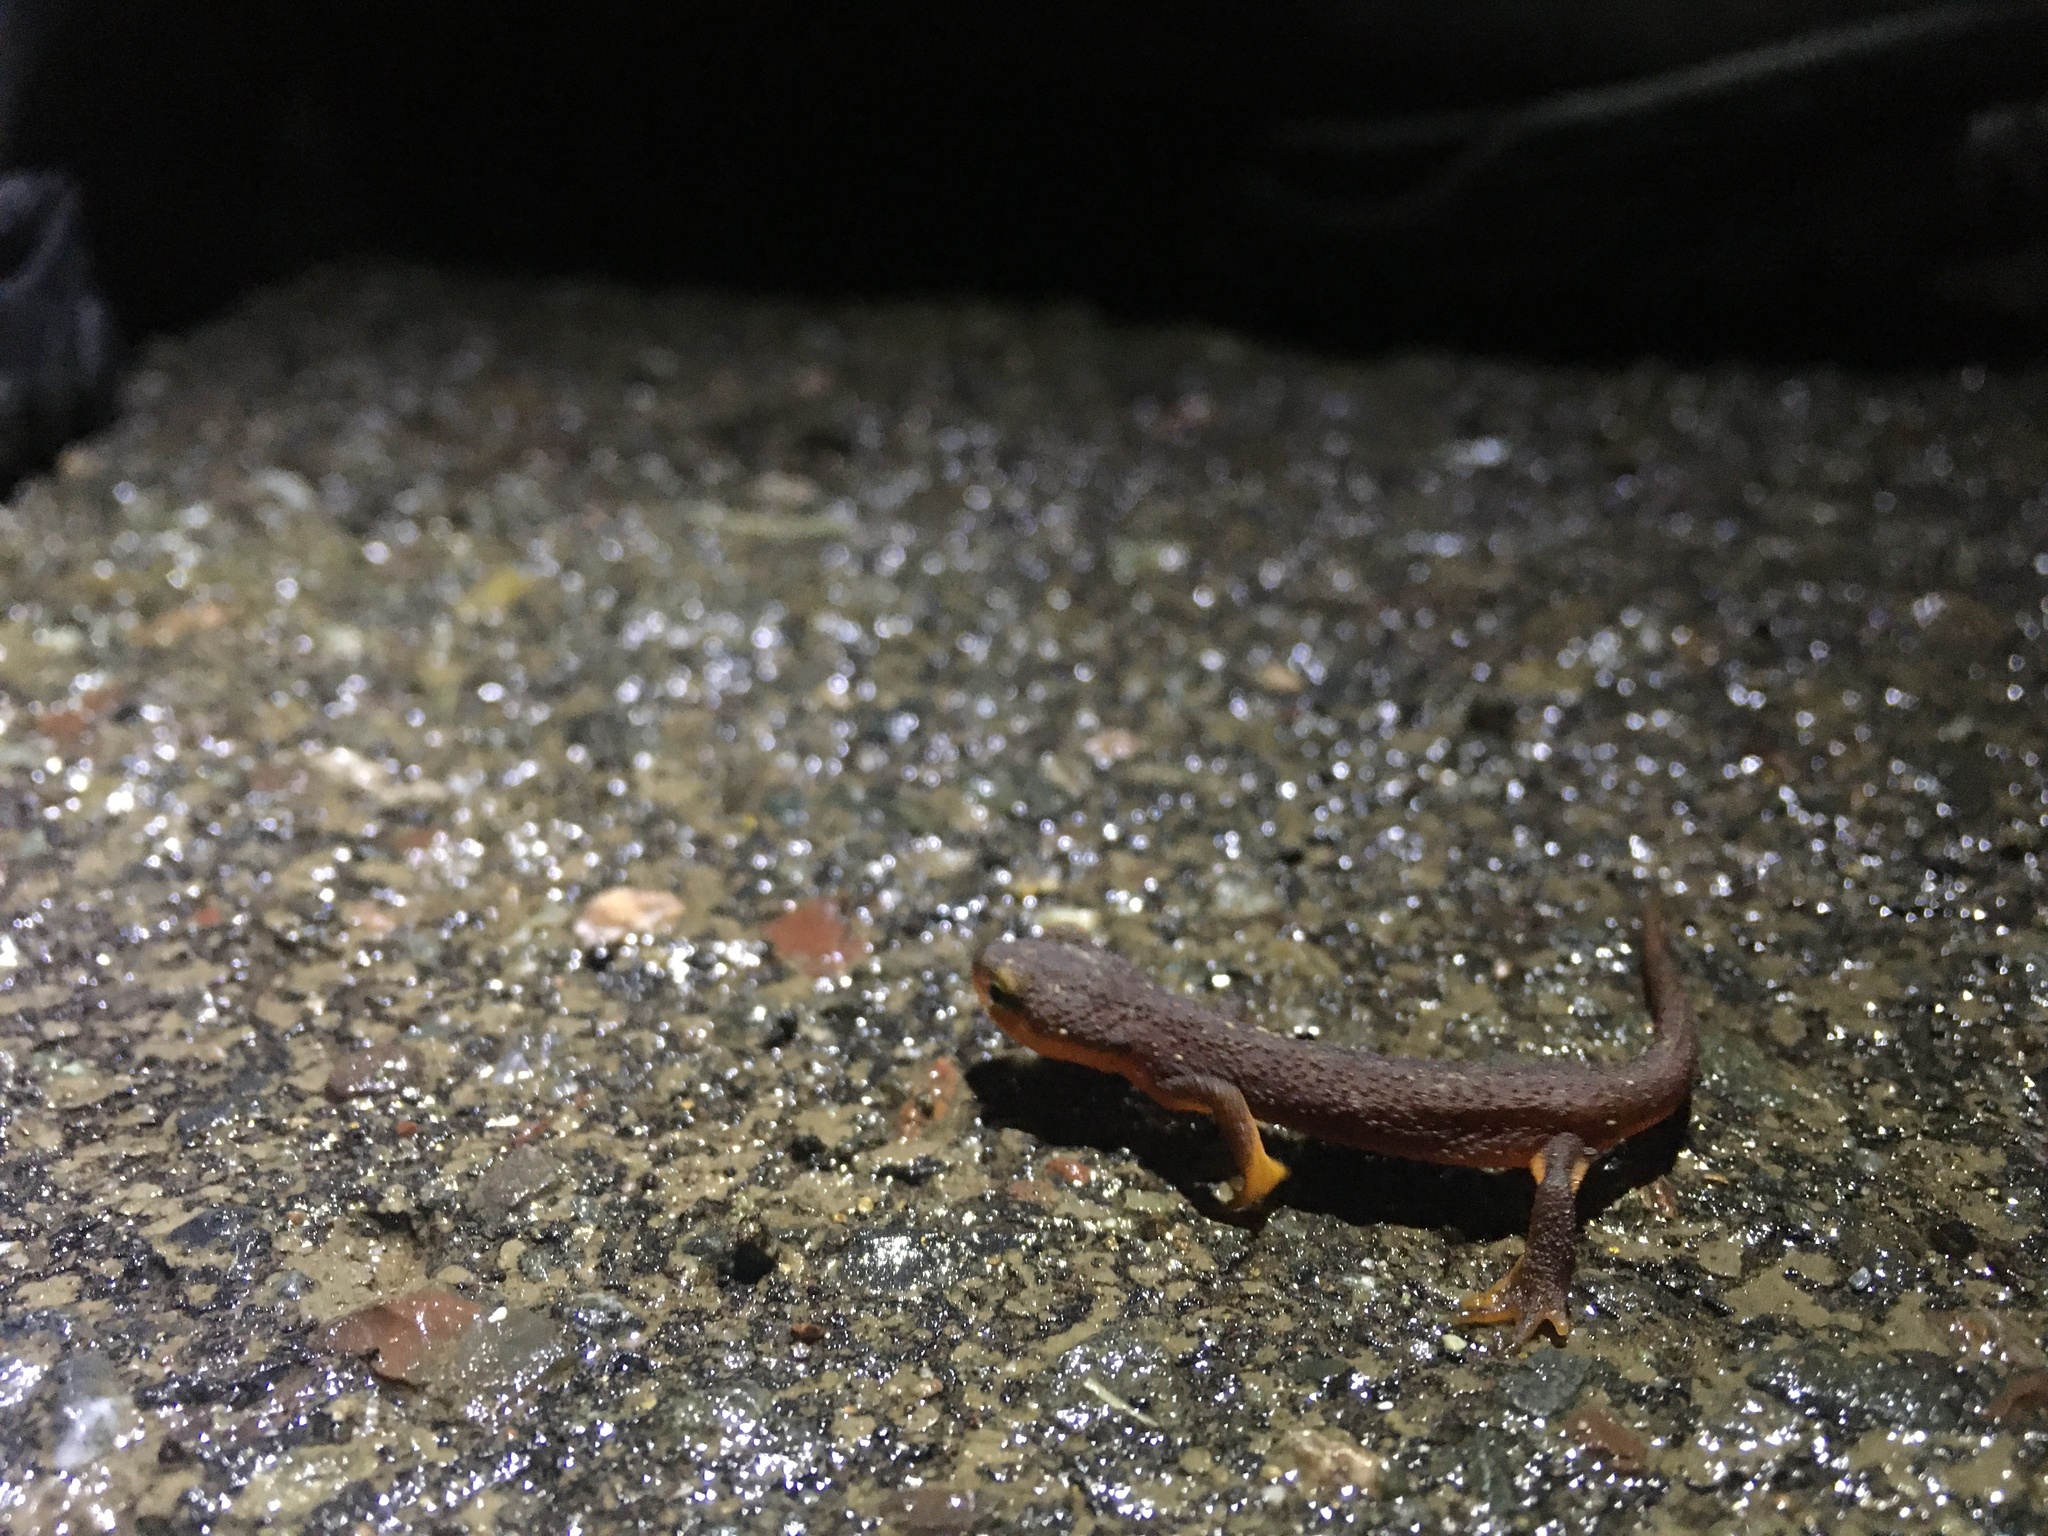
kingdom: Animalia
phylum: Chordata
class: Amphibia
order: Caudata
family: Salamandridae
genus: Taricha
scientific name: Taricha torosa
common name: California newt
